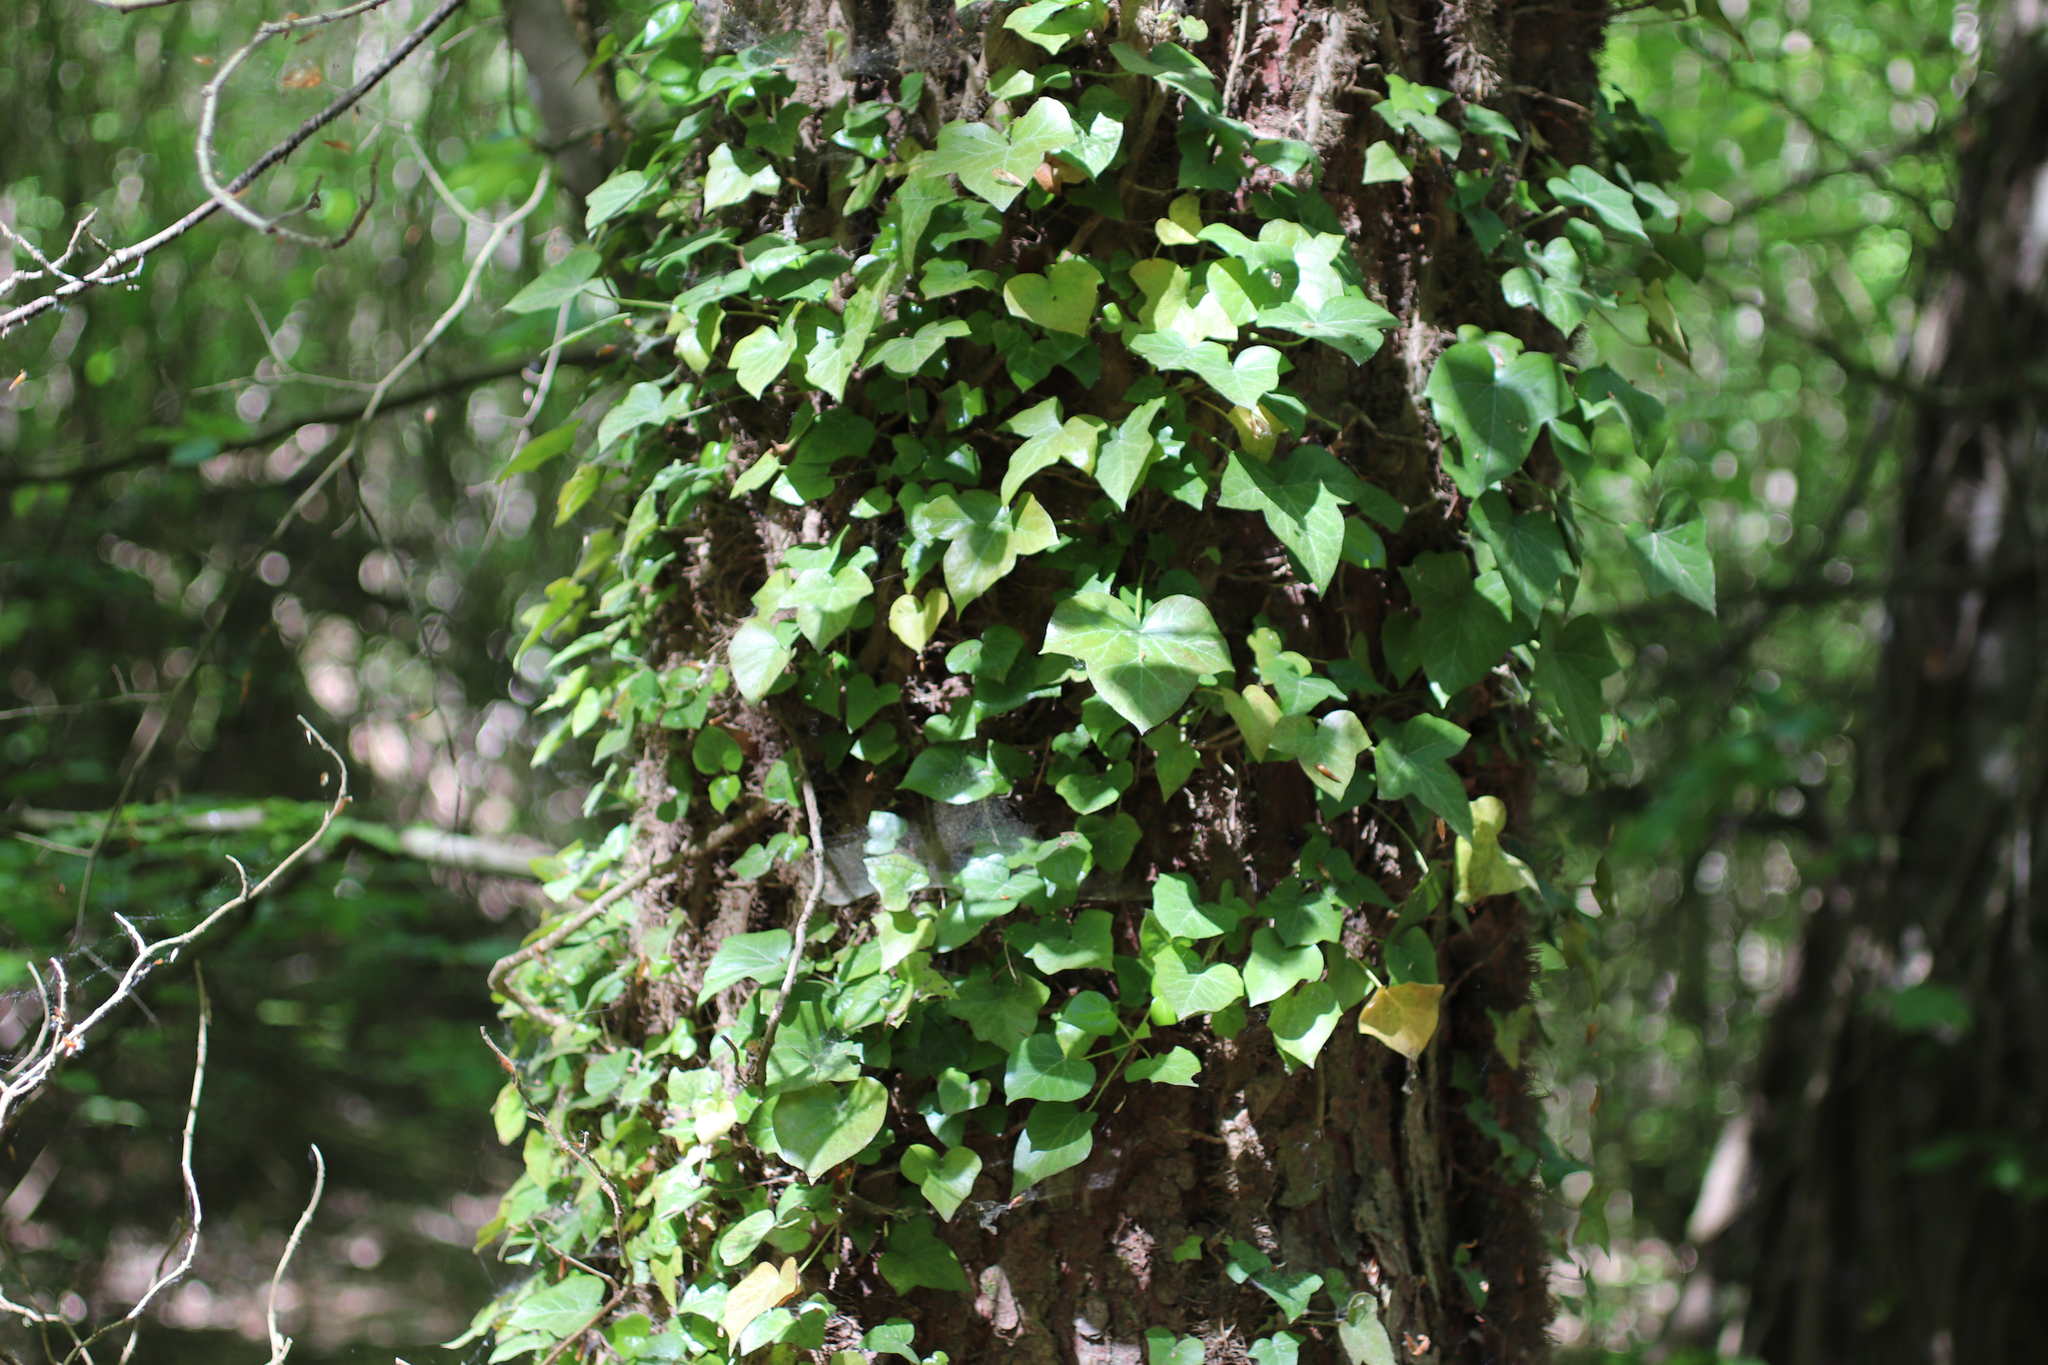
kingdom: Plantae
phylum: Tracheophyta
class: Magnoliopsida
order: Apiales
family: Araliaceae
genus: Hedera
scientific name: Hedera helix
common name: Ivy
